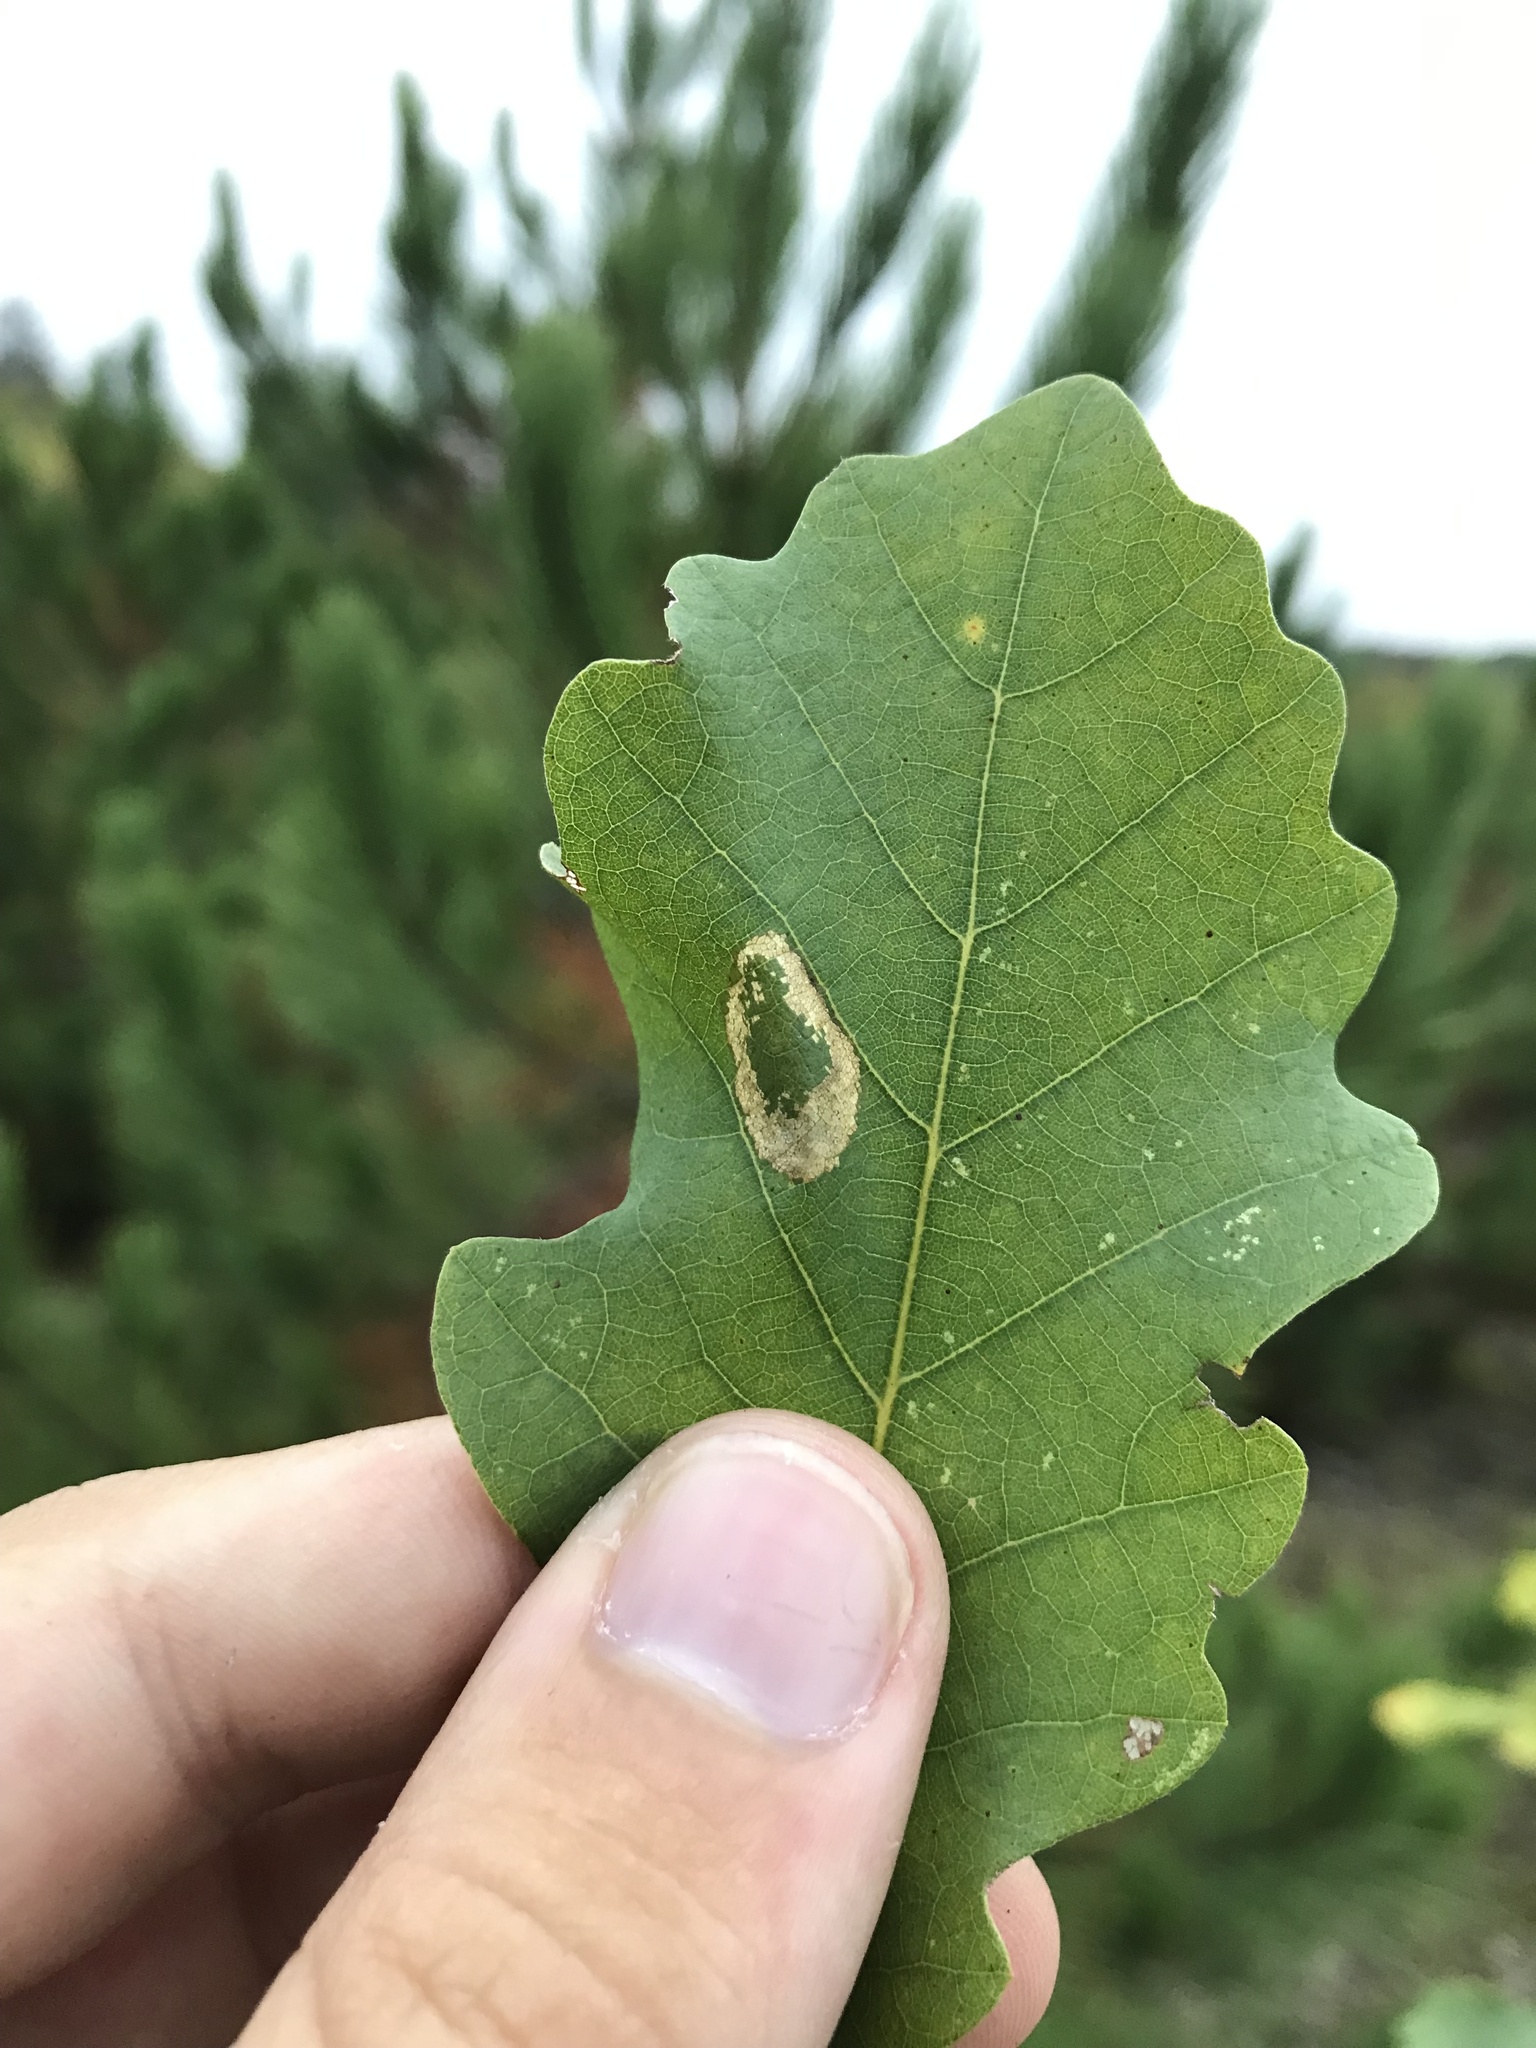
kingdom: Animalia
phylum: Arthropoda
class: Insecta
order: Lepidoptera
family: Gracillariidae
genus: Phyllonorycter
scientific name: Phyllonorycter fitchella
